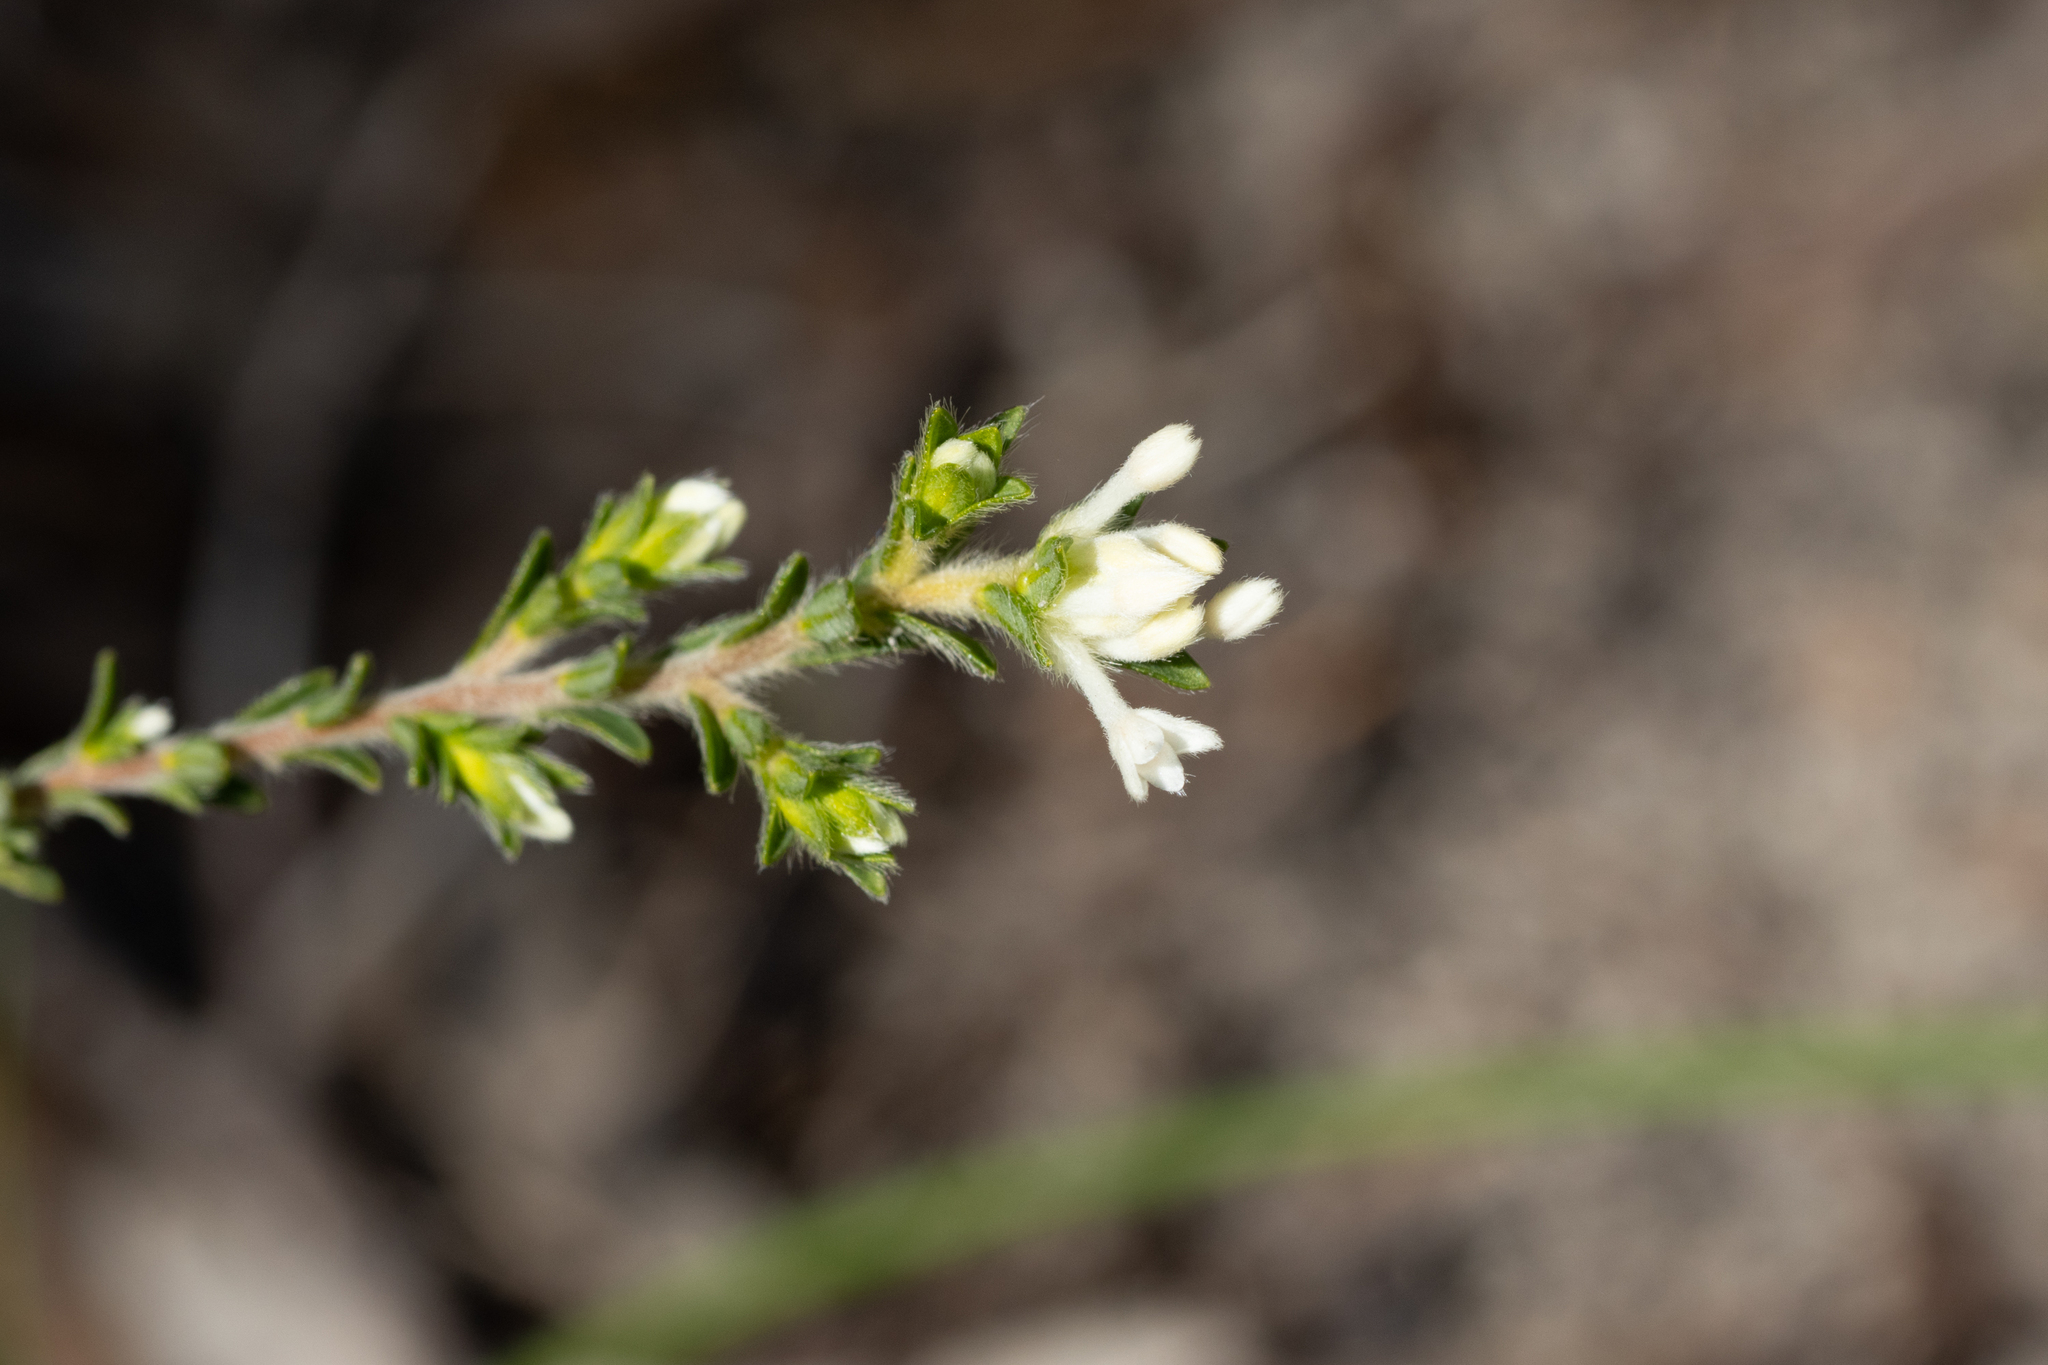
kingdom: Plantae
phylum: Tracheophyta
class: Magnoliopsida
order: Malvales
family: Thymelaeaceae
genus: Pimelea
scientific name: Pimelea octophylla
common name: Woolly riceflower
